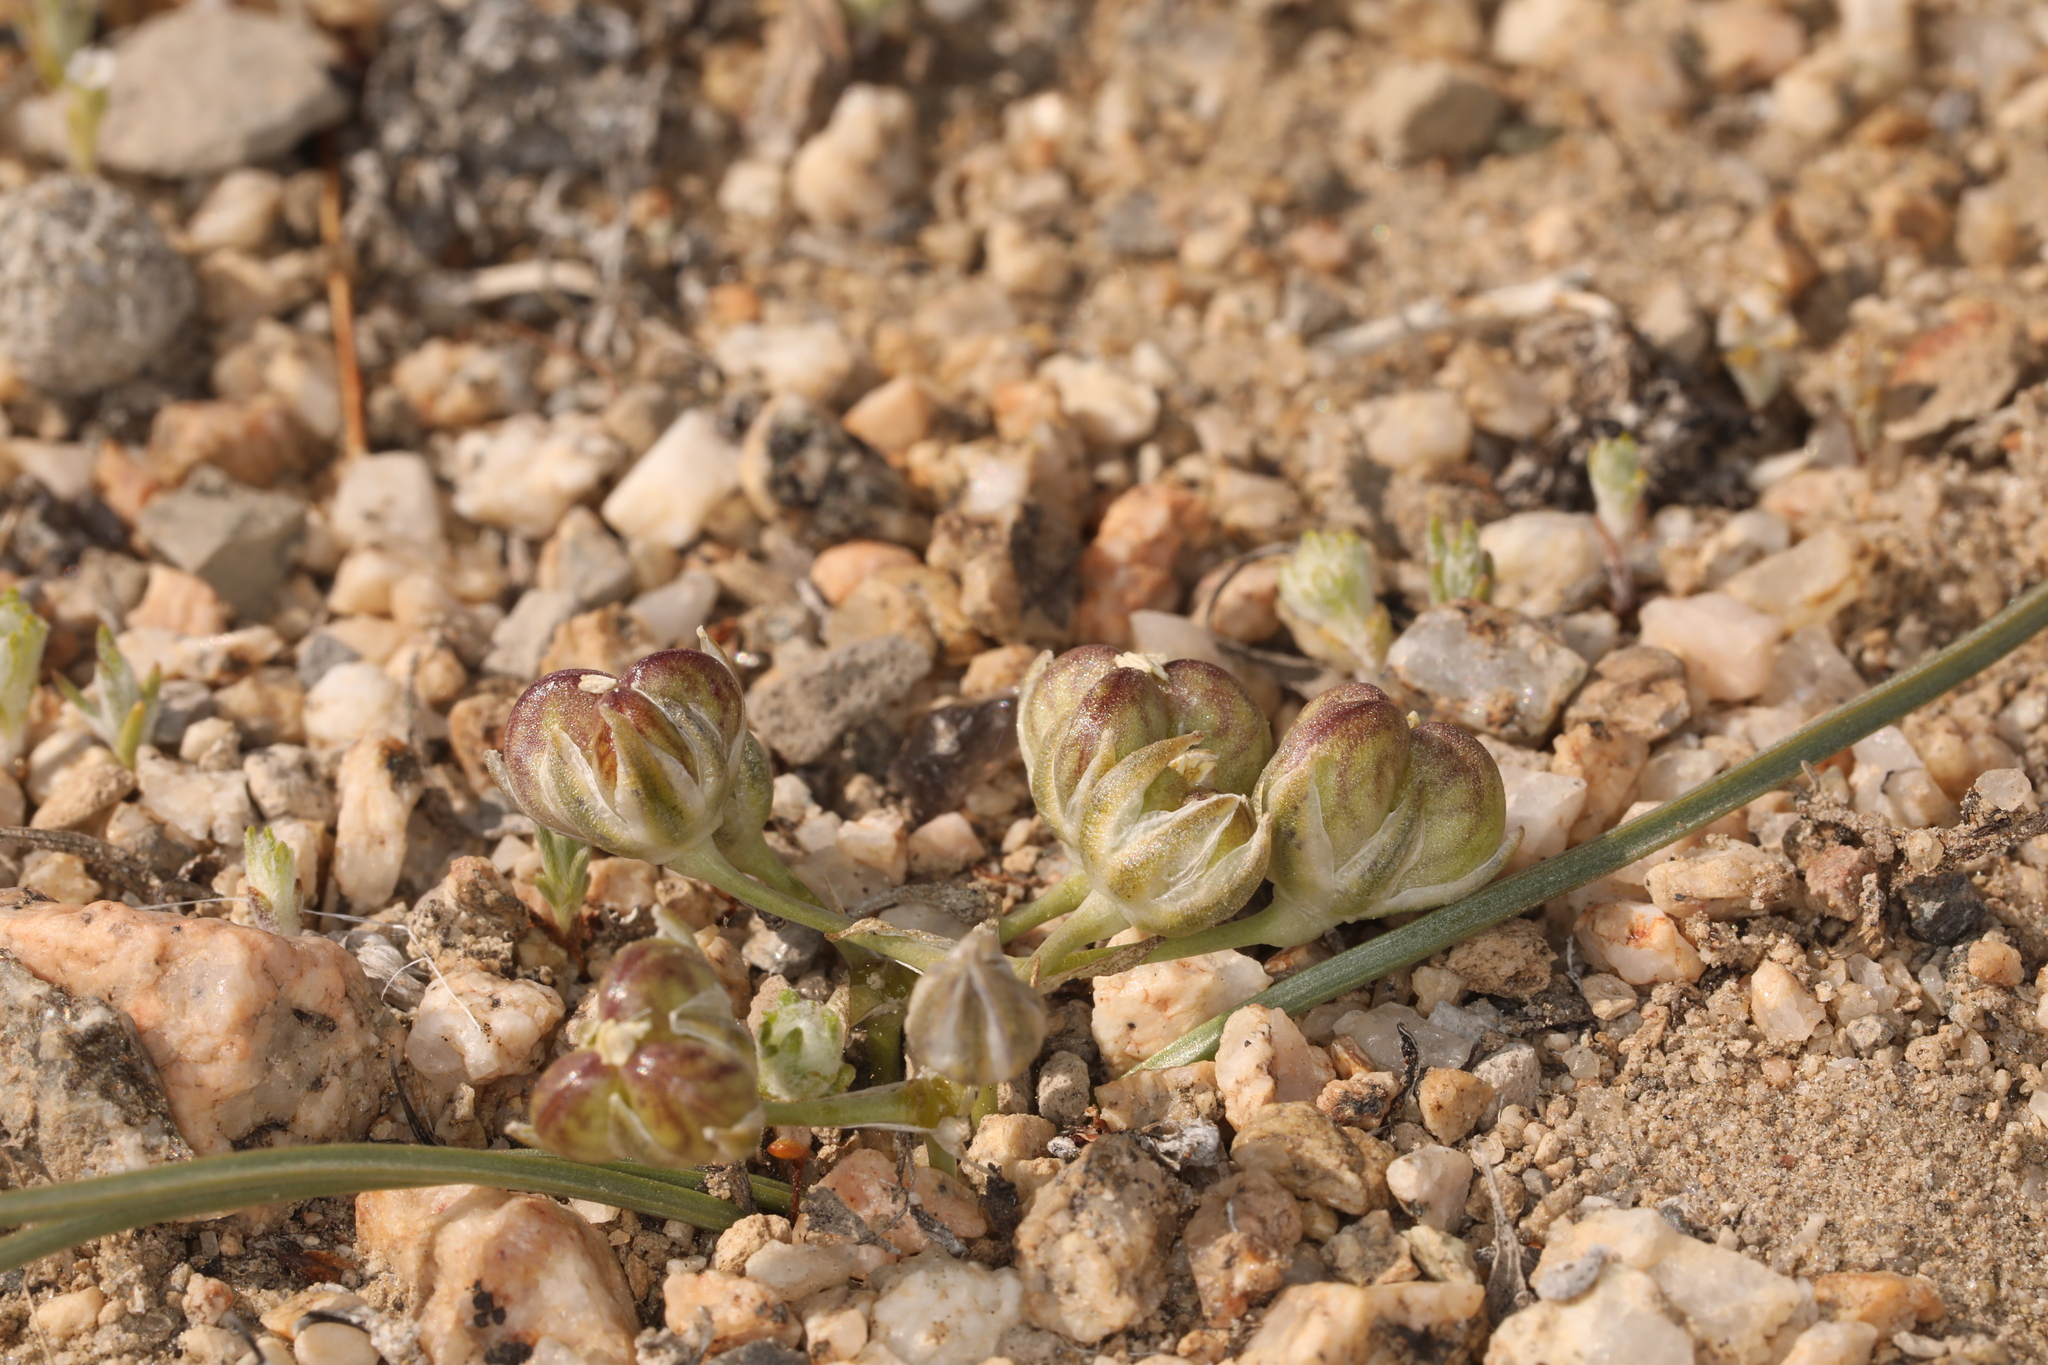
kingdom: Plantae
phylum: Tracheophyta
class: Liliopsida
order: Asparagales
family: Asparagaceae
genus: Muilla
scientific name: Muilla coronata
